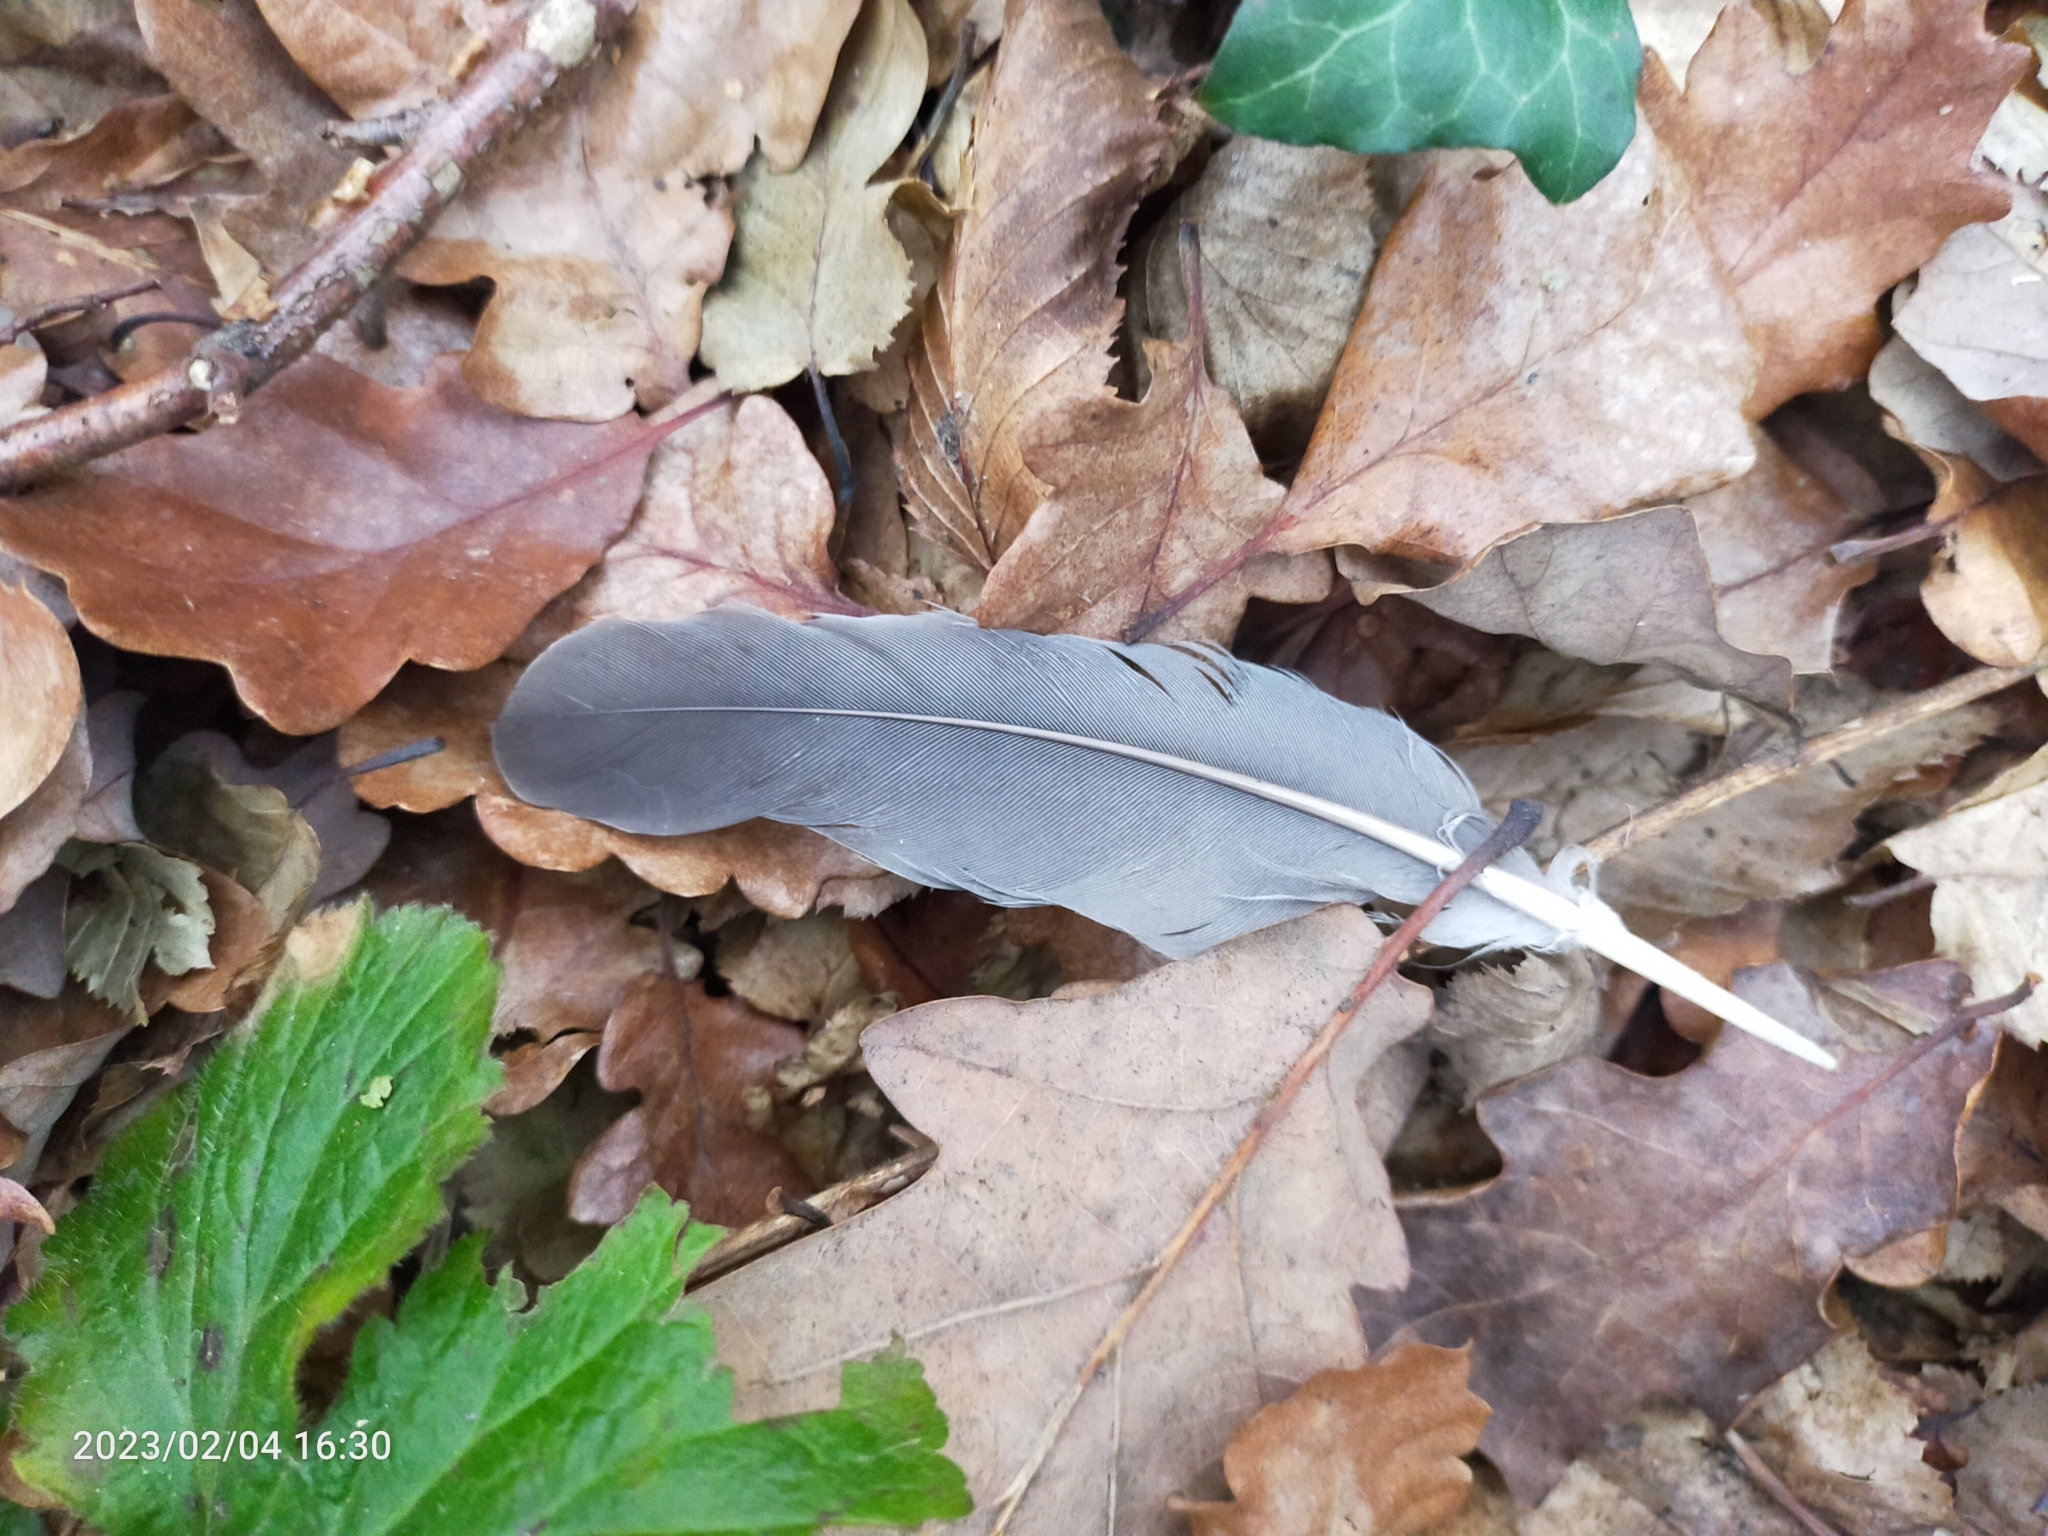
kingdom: Animalia
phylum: Chordata
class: Aves
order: Columbiformes
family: Columbidae
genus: Columba
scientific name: Columba palumbus
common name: Common wood pigeon
